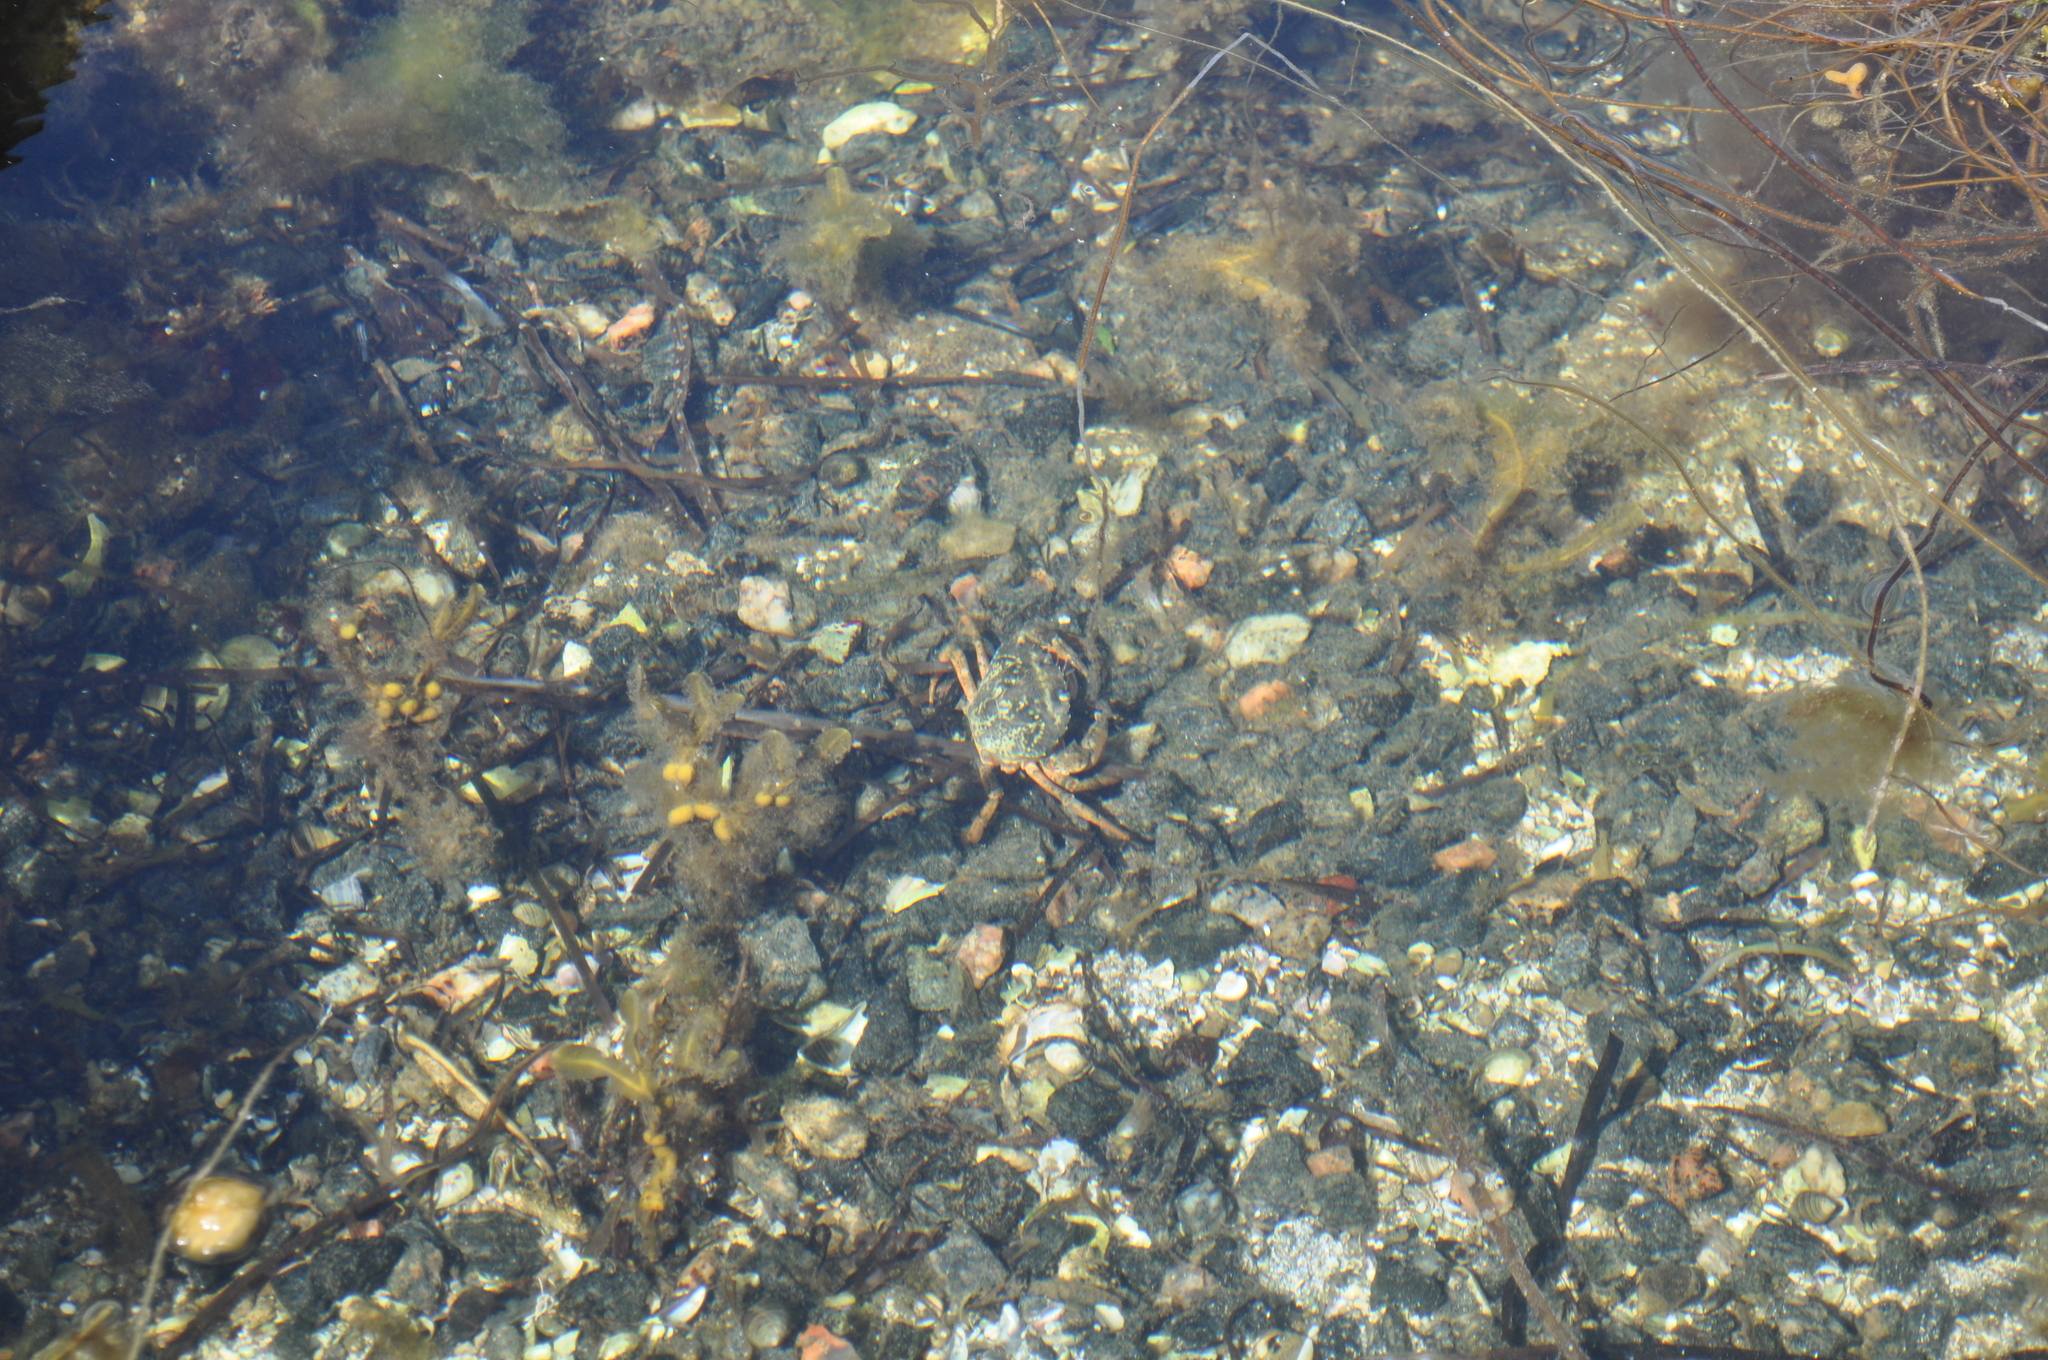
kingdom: Animalia
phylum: Arthropoda
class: Malacostraca
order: Decapoda
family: Carcinidae
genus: Carcinus
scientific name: Carcinus maenas
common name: European green crab
